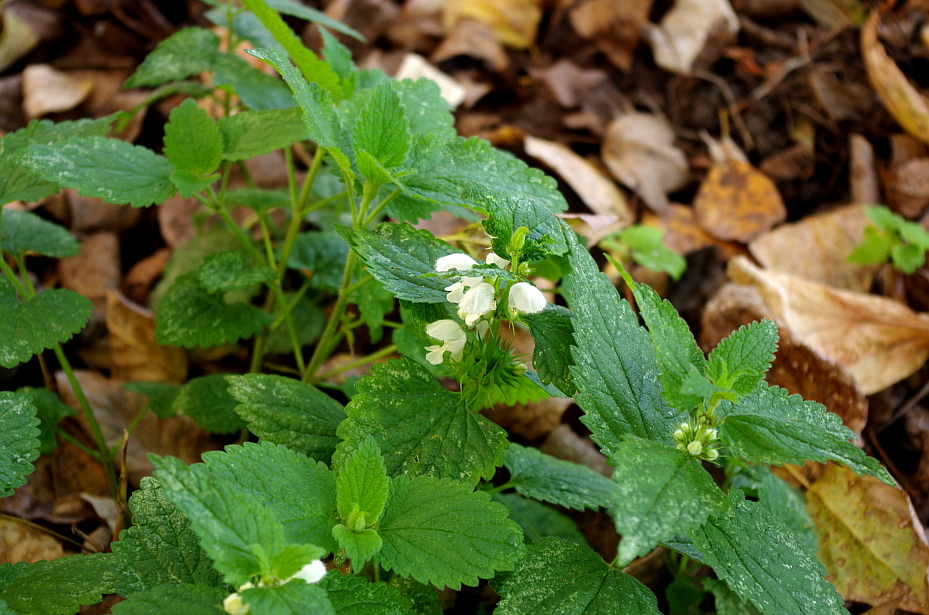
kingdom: Plantae
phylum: Tracheophyta
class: Magnoliopsida
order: Lamiales
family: Lamiaceae
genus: Lamium
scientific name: Lamium album
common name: White dead-nettle
